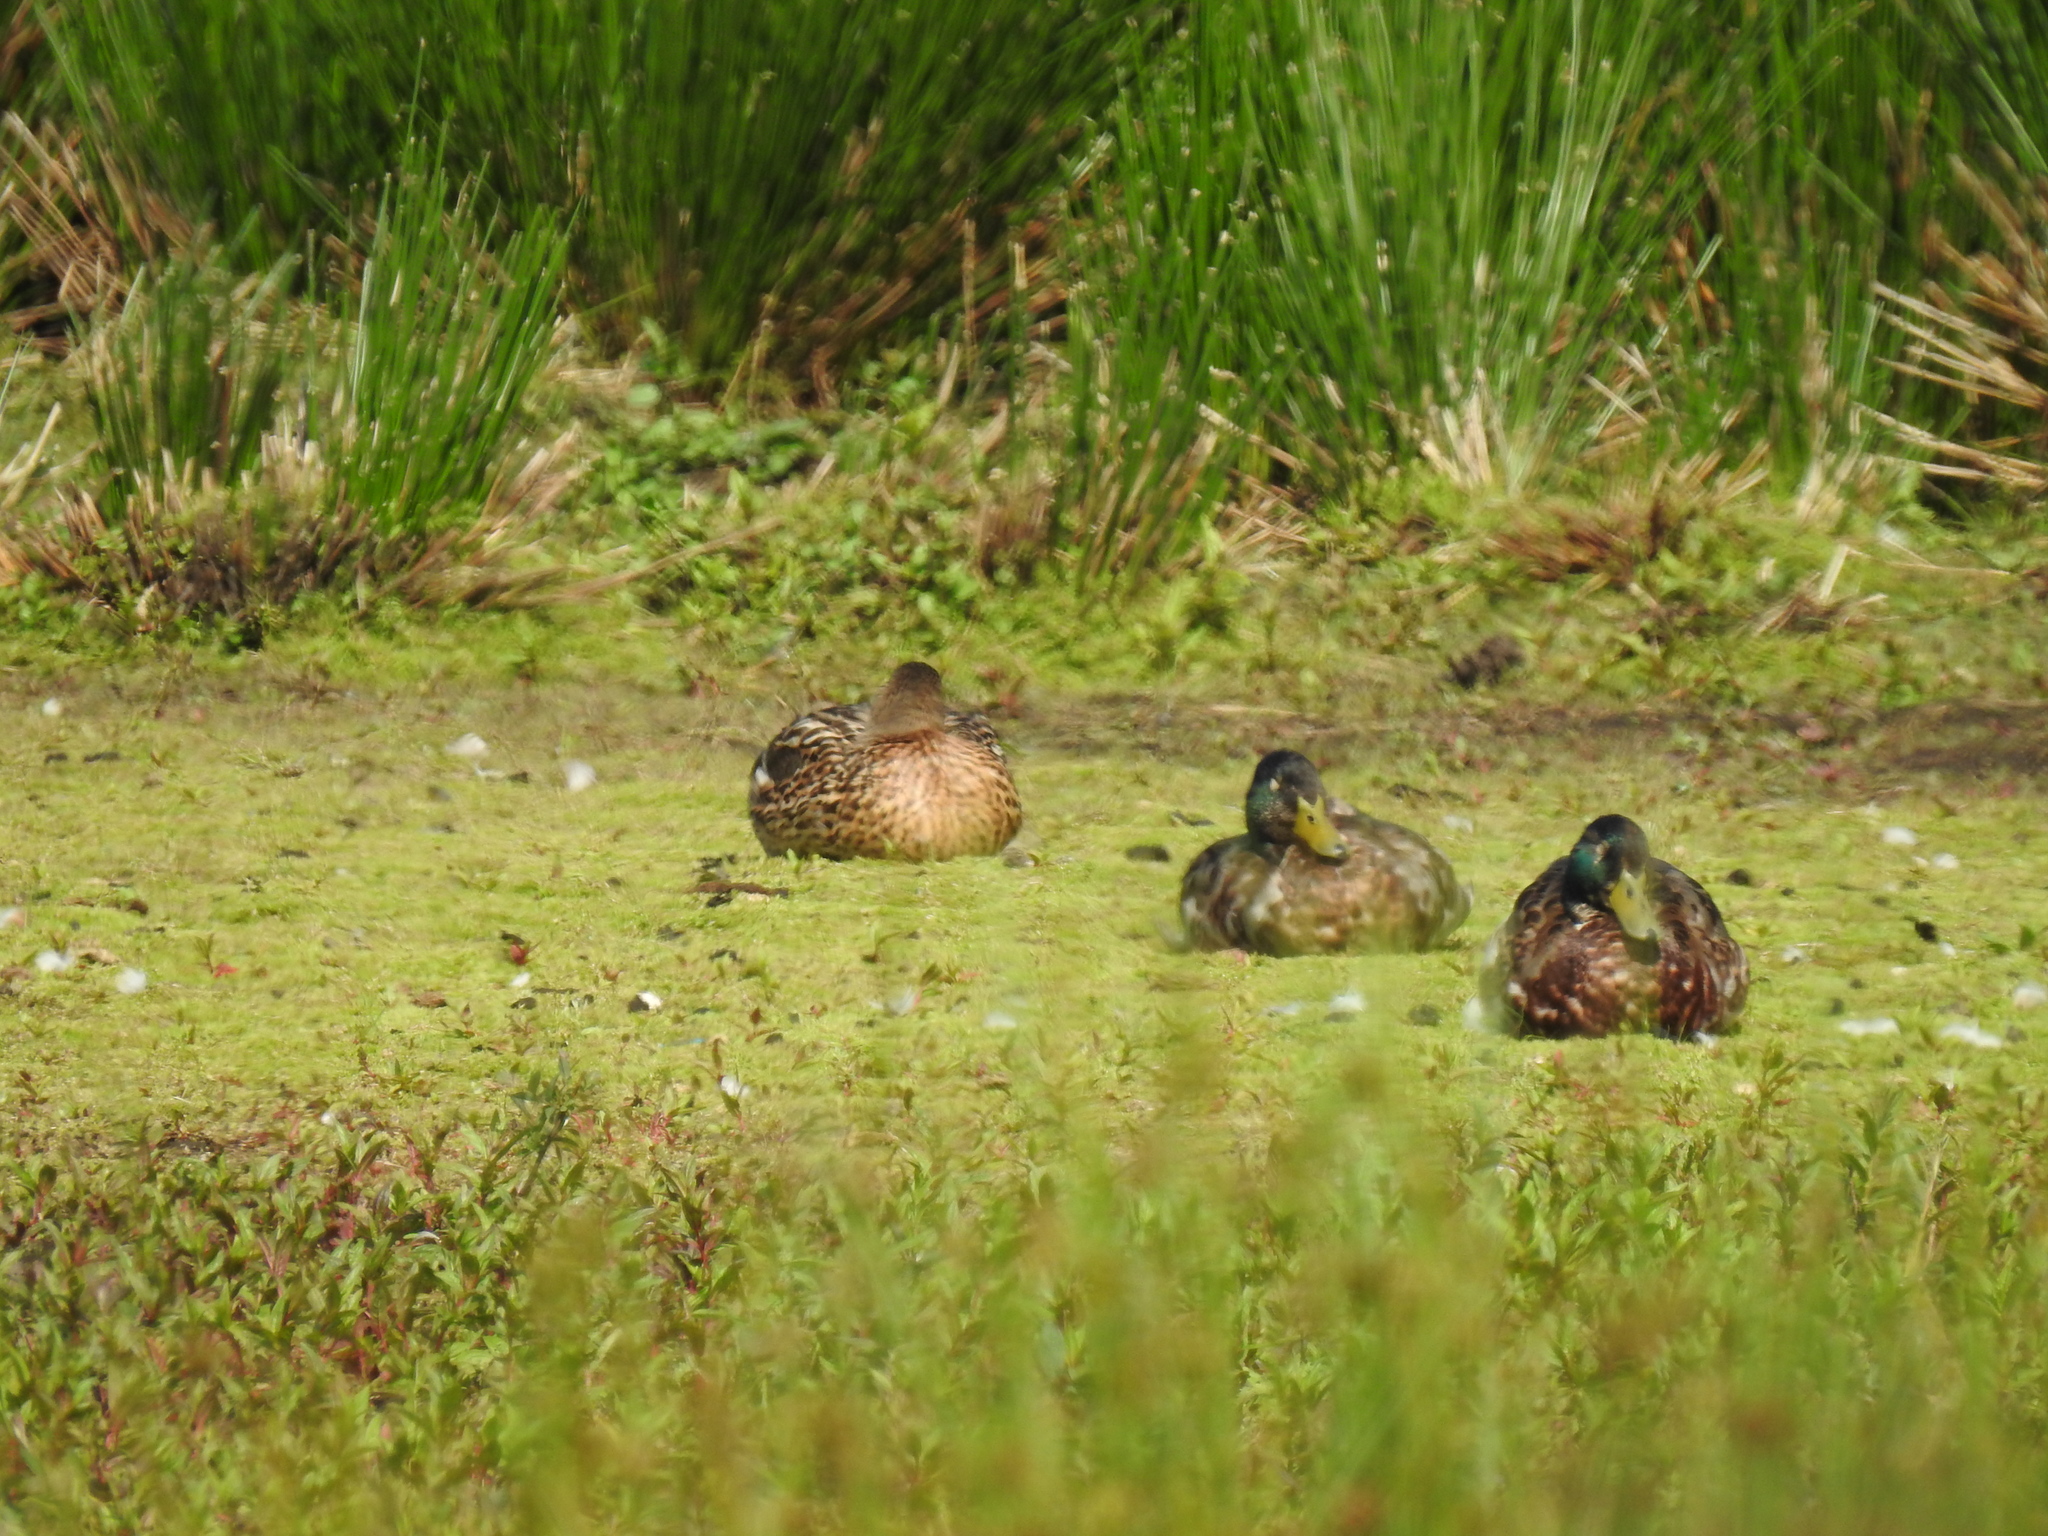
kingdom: Animalia
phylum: Chordata
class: Aves
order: Anseriformes
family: Anatidae
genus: Anas
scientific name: Anas platyrhynchos
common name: Mallard
